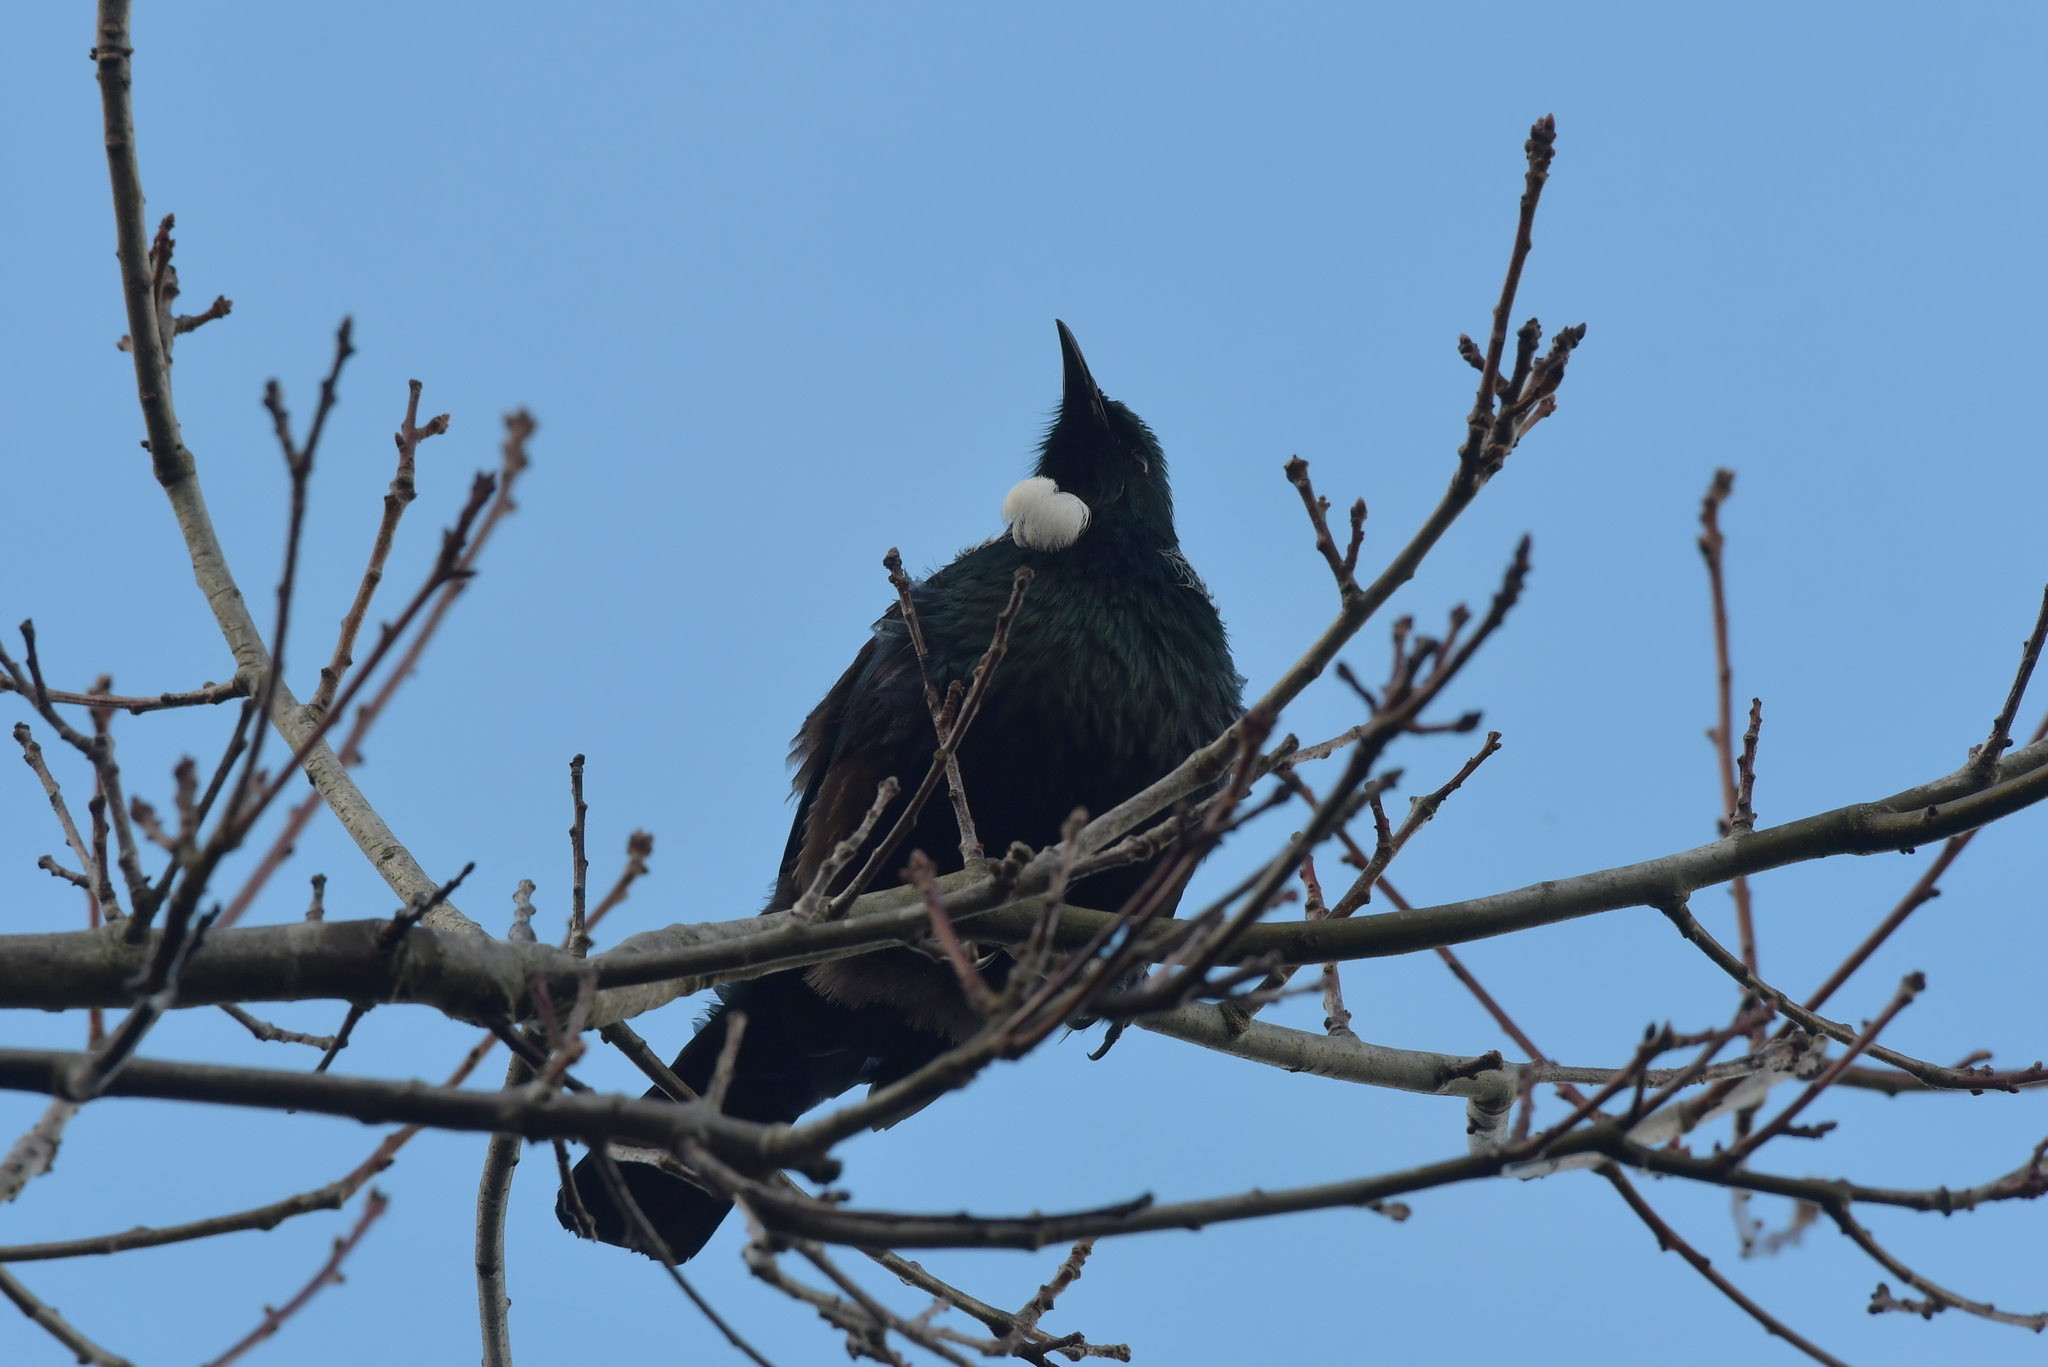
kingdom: Animalia
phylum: Chordata
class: Aves
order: Passeriformes
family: Meliphagidae
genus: Prosthemadera
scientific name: Prosthemadera novaeseelandiae
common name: Tui
